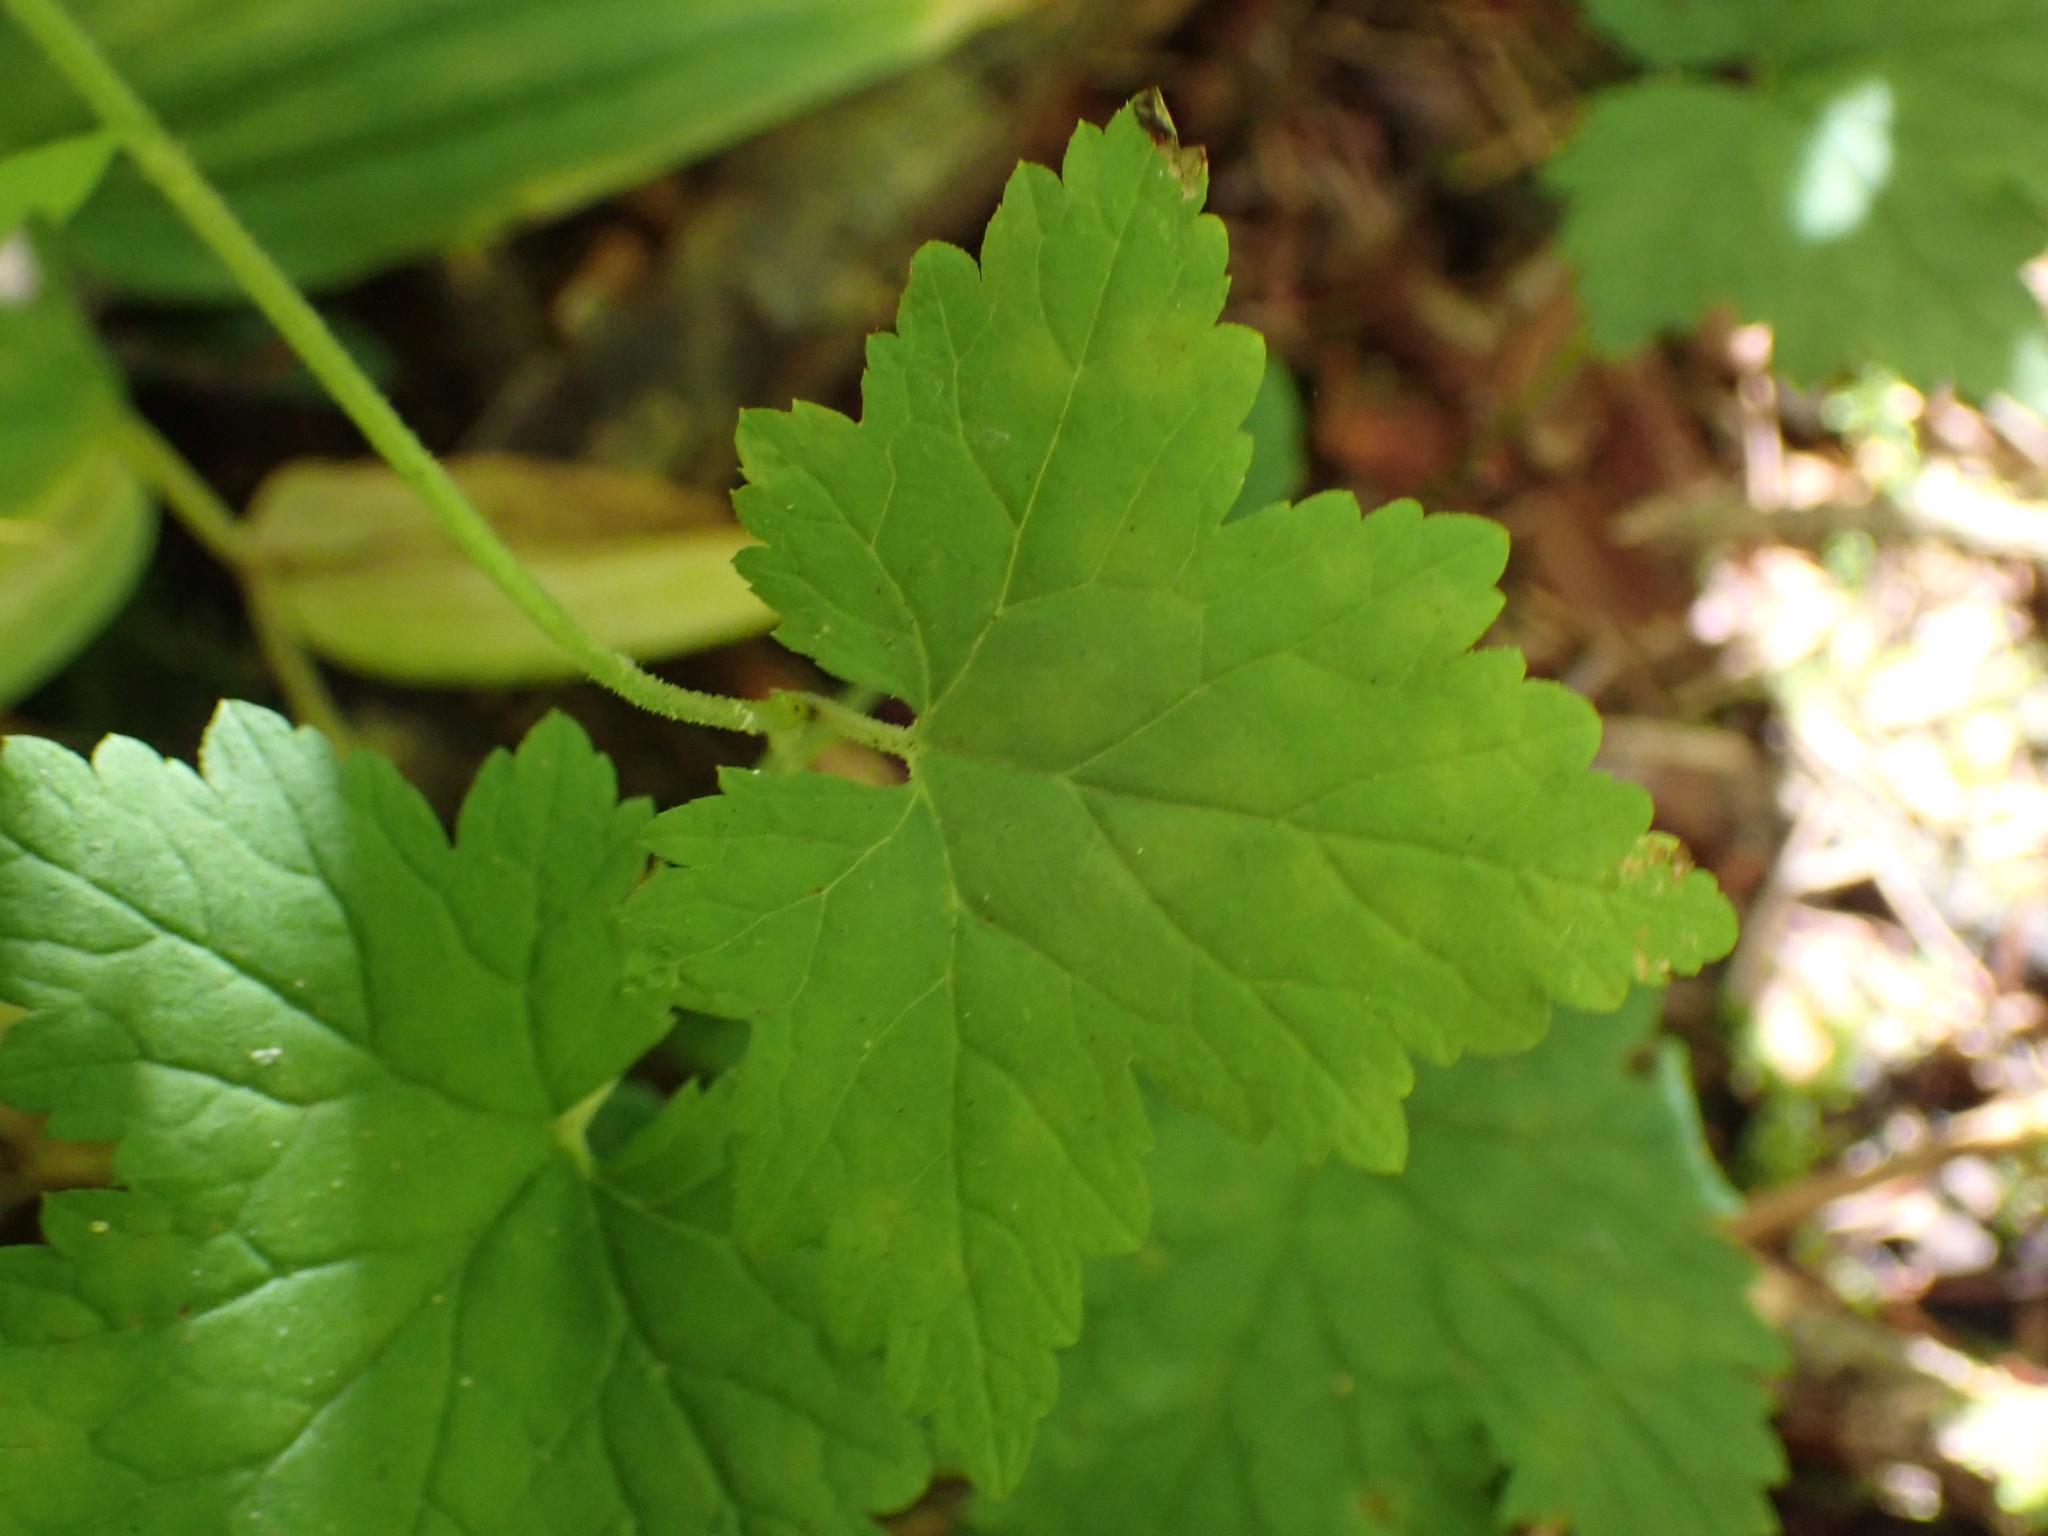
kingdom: Plantae
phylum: Tracheophyta
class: Magnoliopsida
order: Saxifragales
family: Saxifragaceae
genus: Tiarella
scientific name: Tiarella trifoliata
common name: Sugar-scoop
